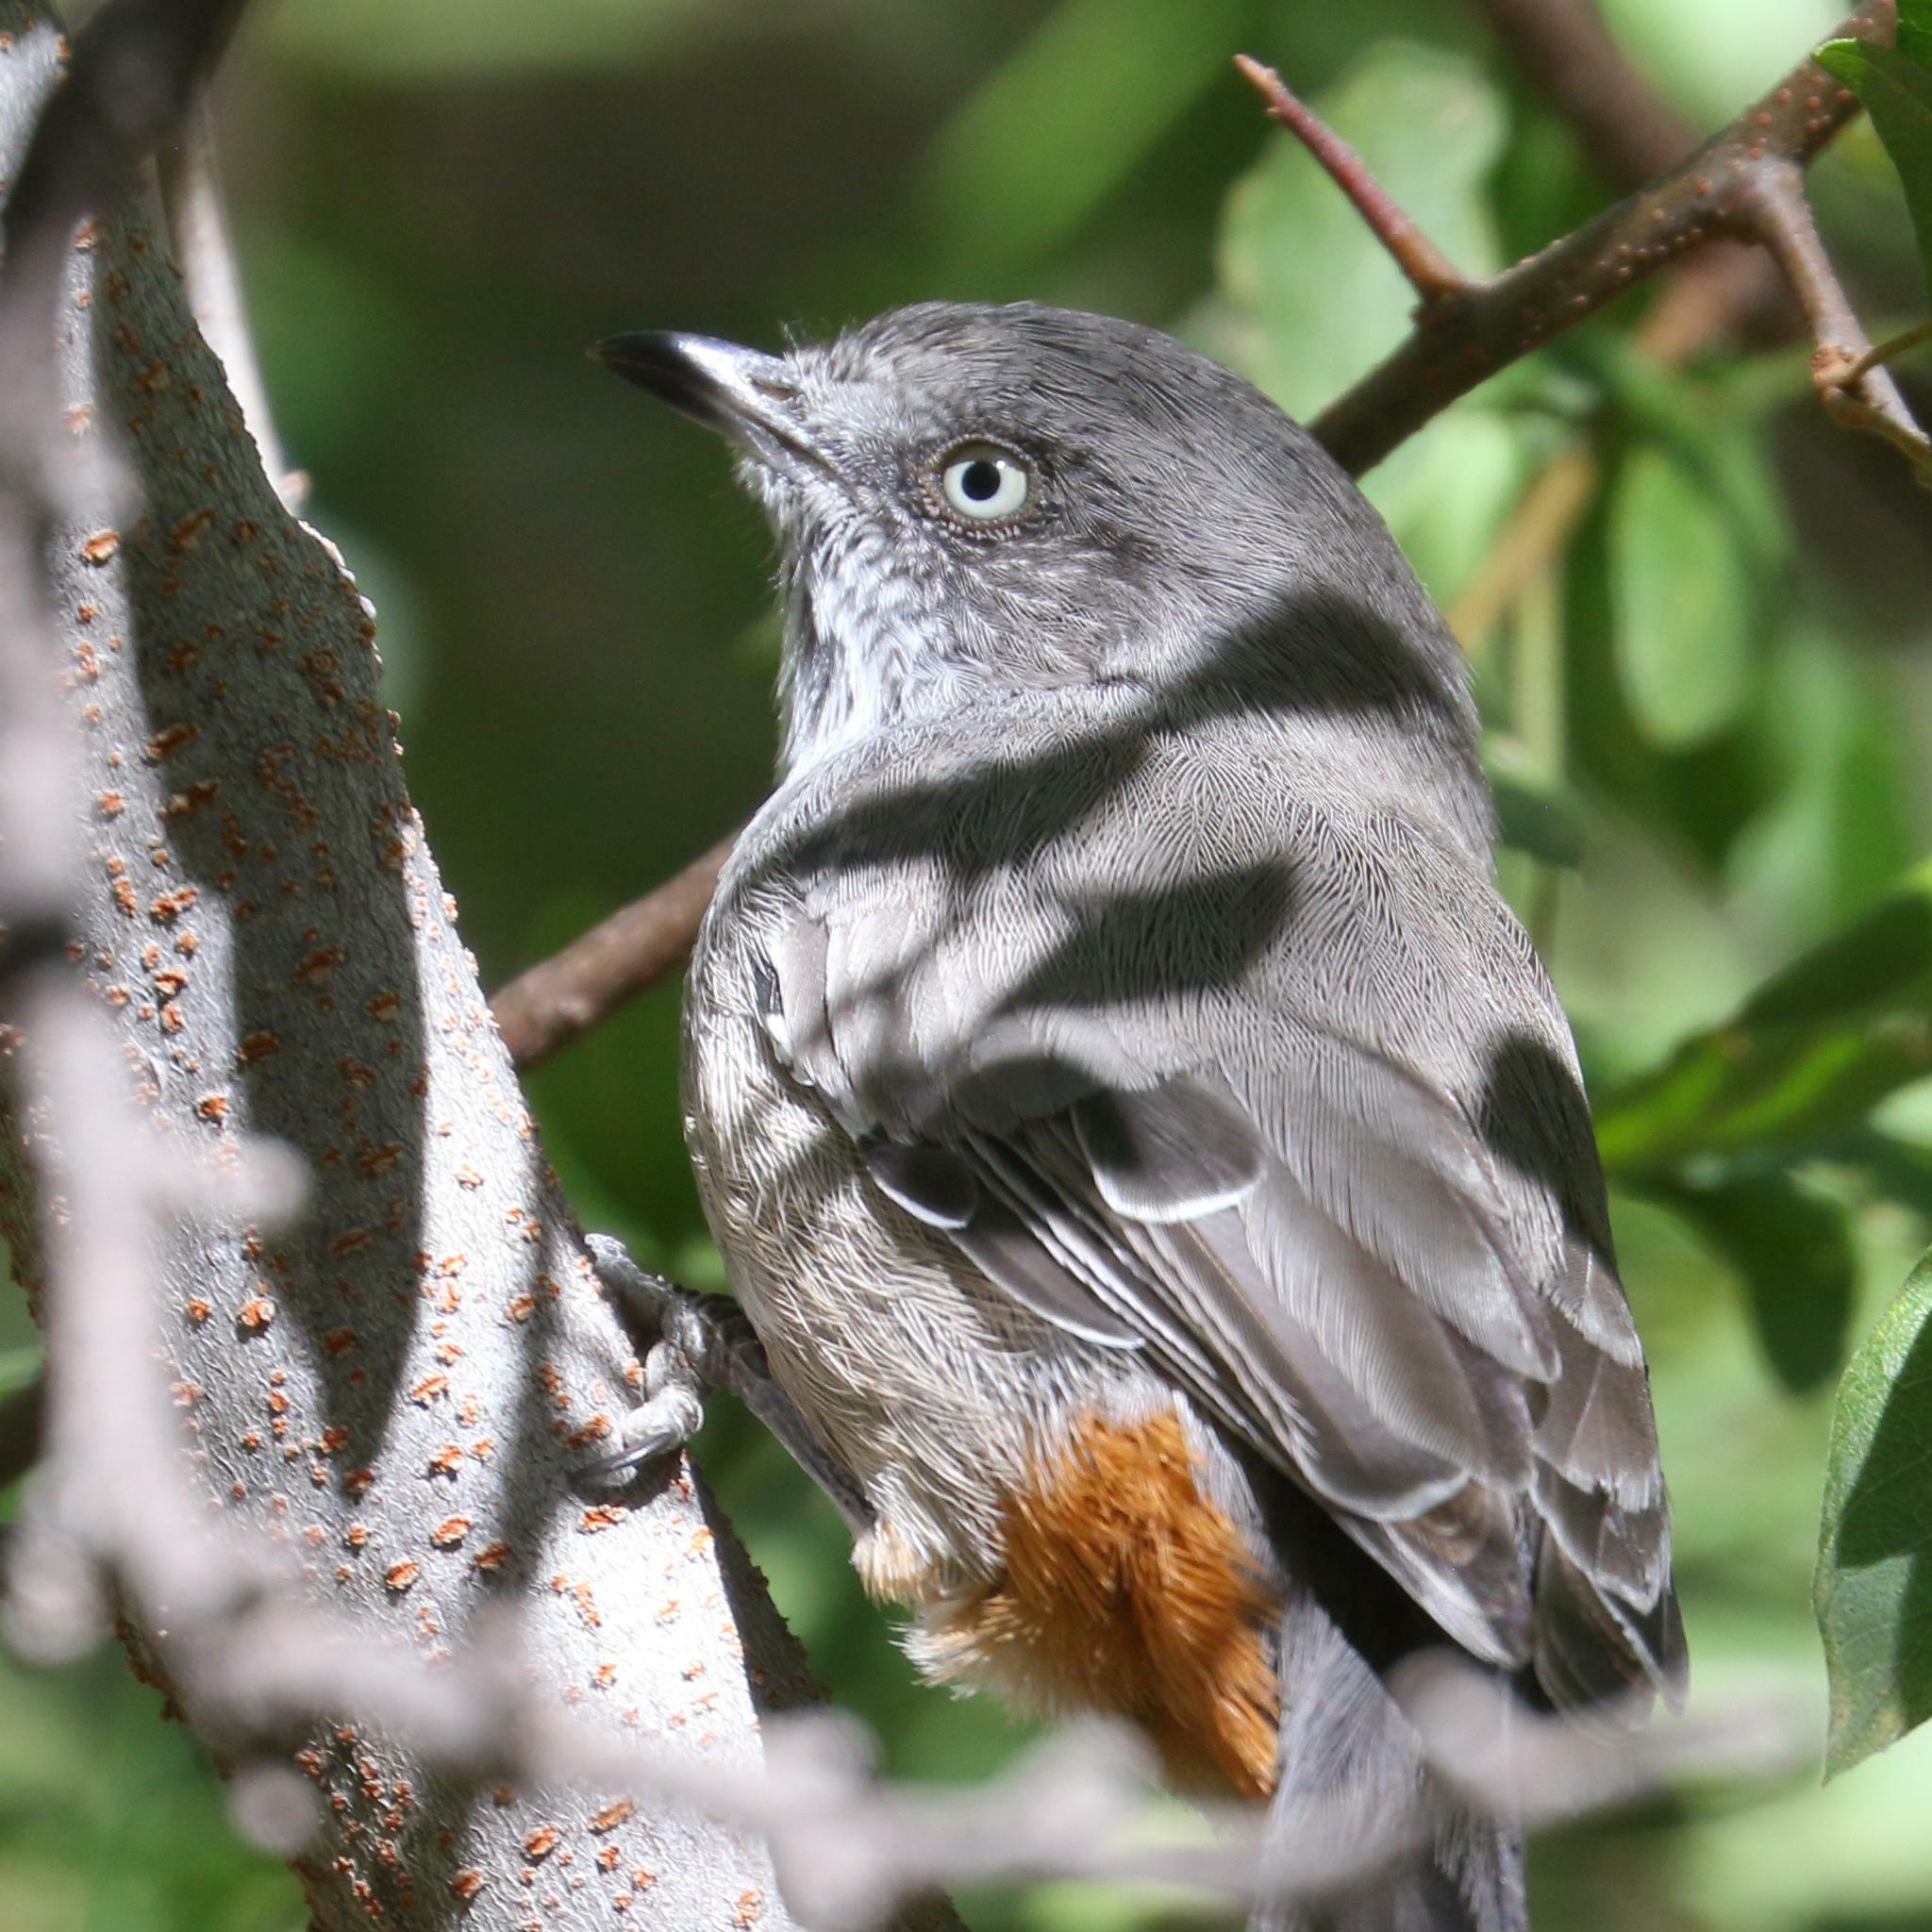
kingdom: Animalia
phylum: Chordata
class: Aves
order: Passeriformes
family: Sylviidae
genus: Curruca
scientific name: Curruca subcoerulea
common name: Chestnut-vented warbler
